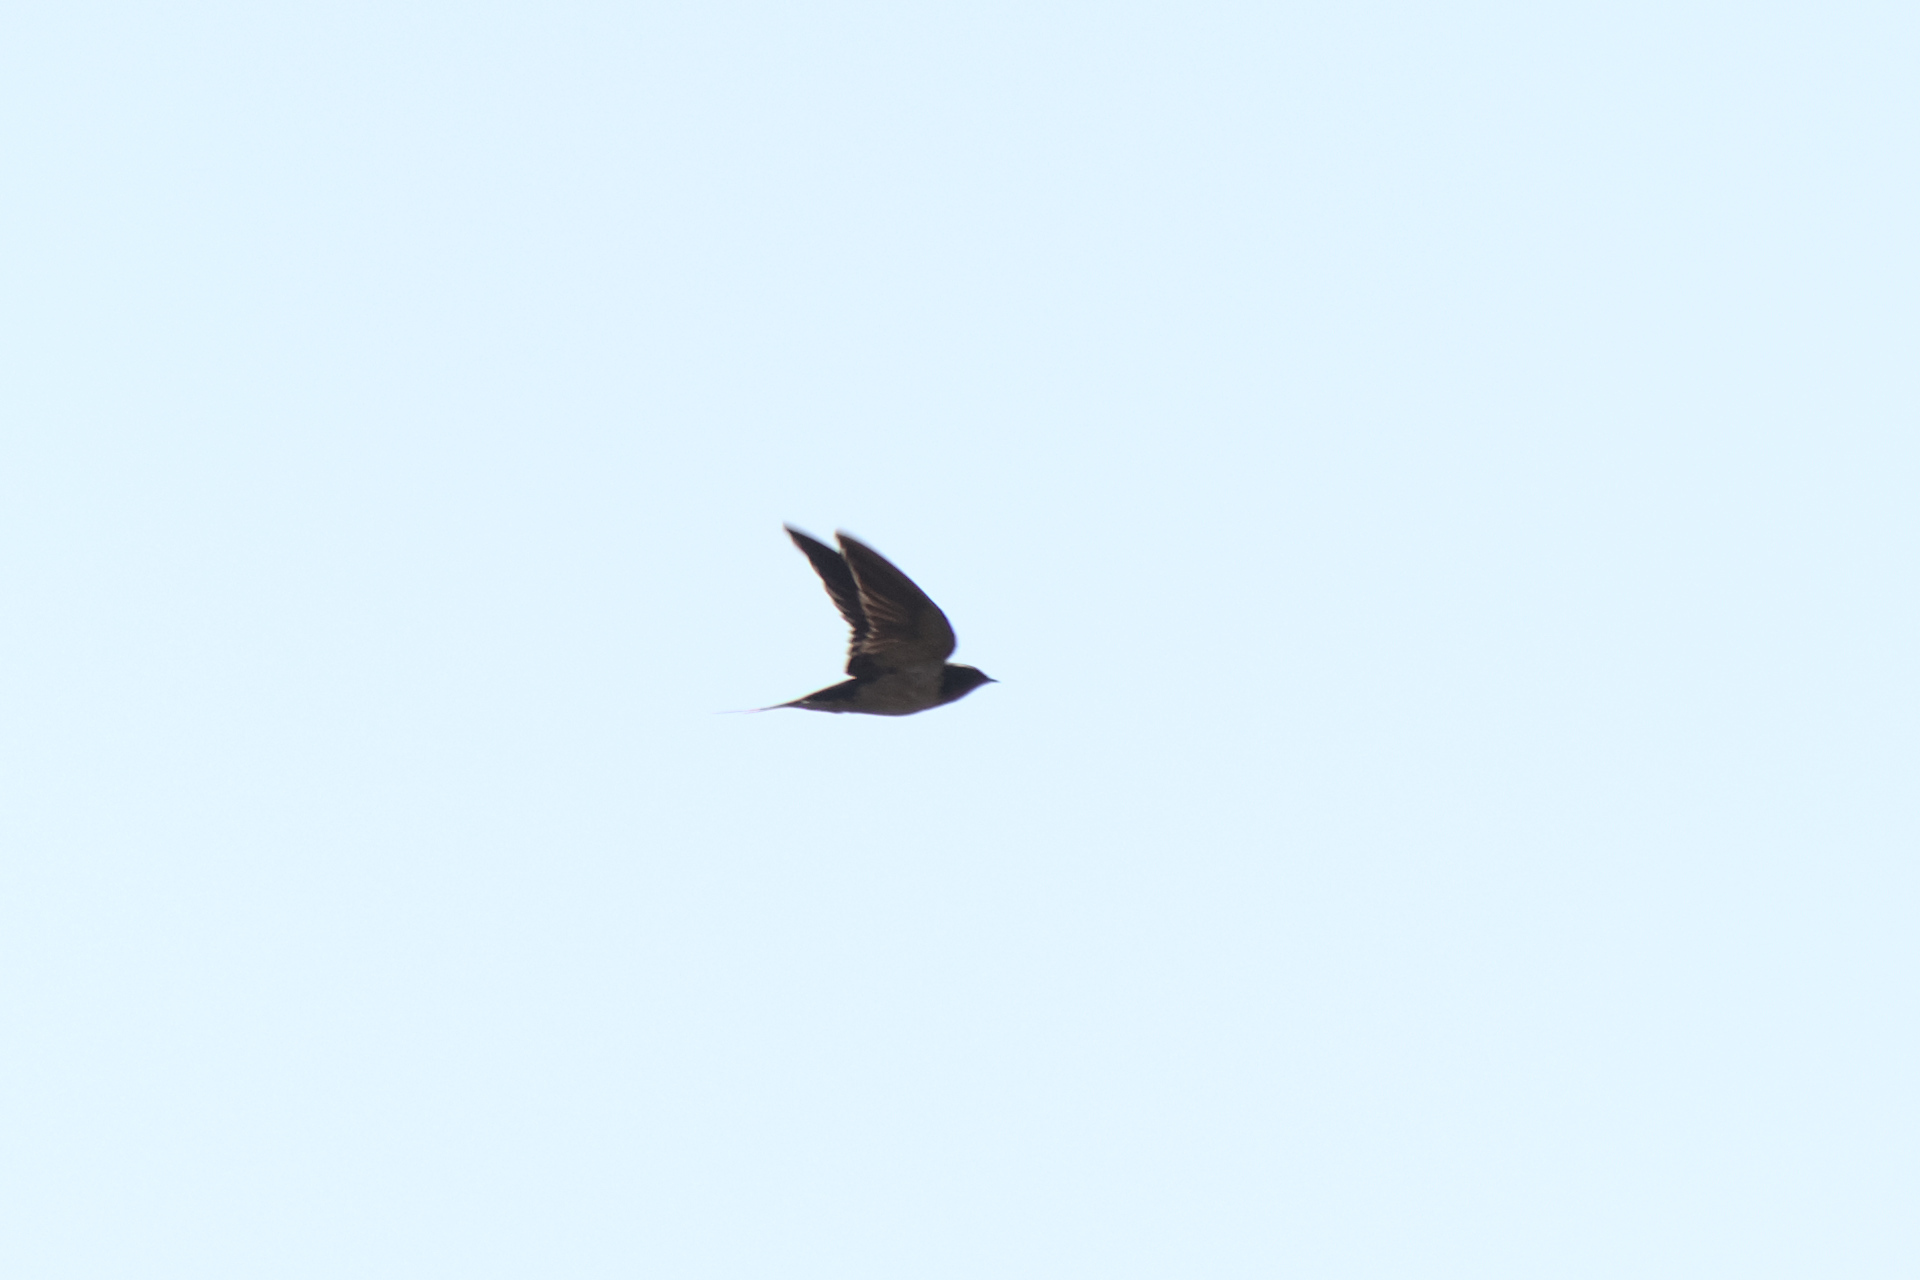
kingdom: Animalia
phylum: Chordata
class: Aves
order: Passeriformes
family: Hirundinidae
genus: Hirundo
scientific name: Hirundo rustica
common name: Barn swallow
